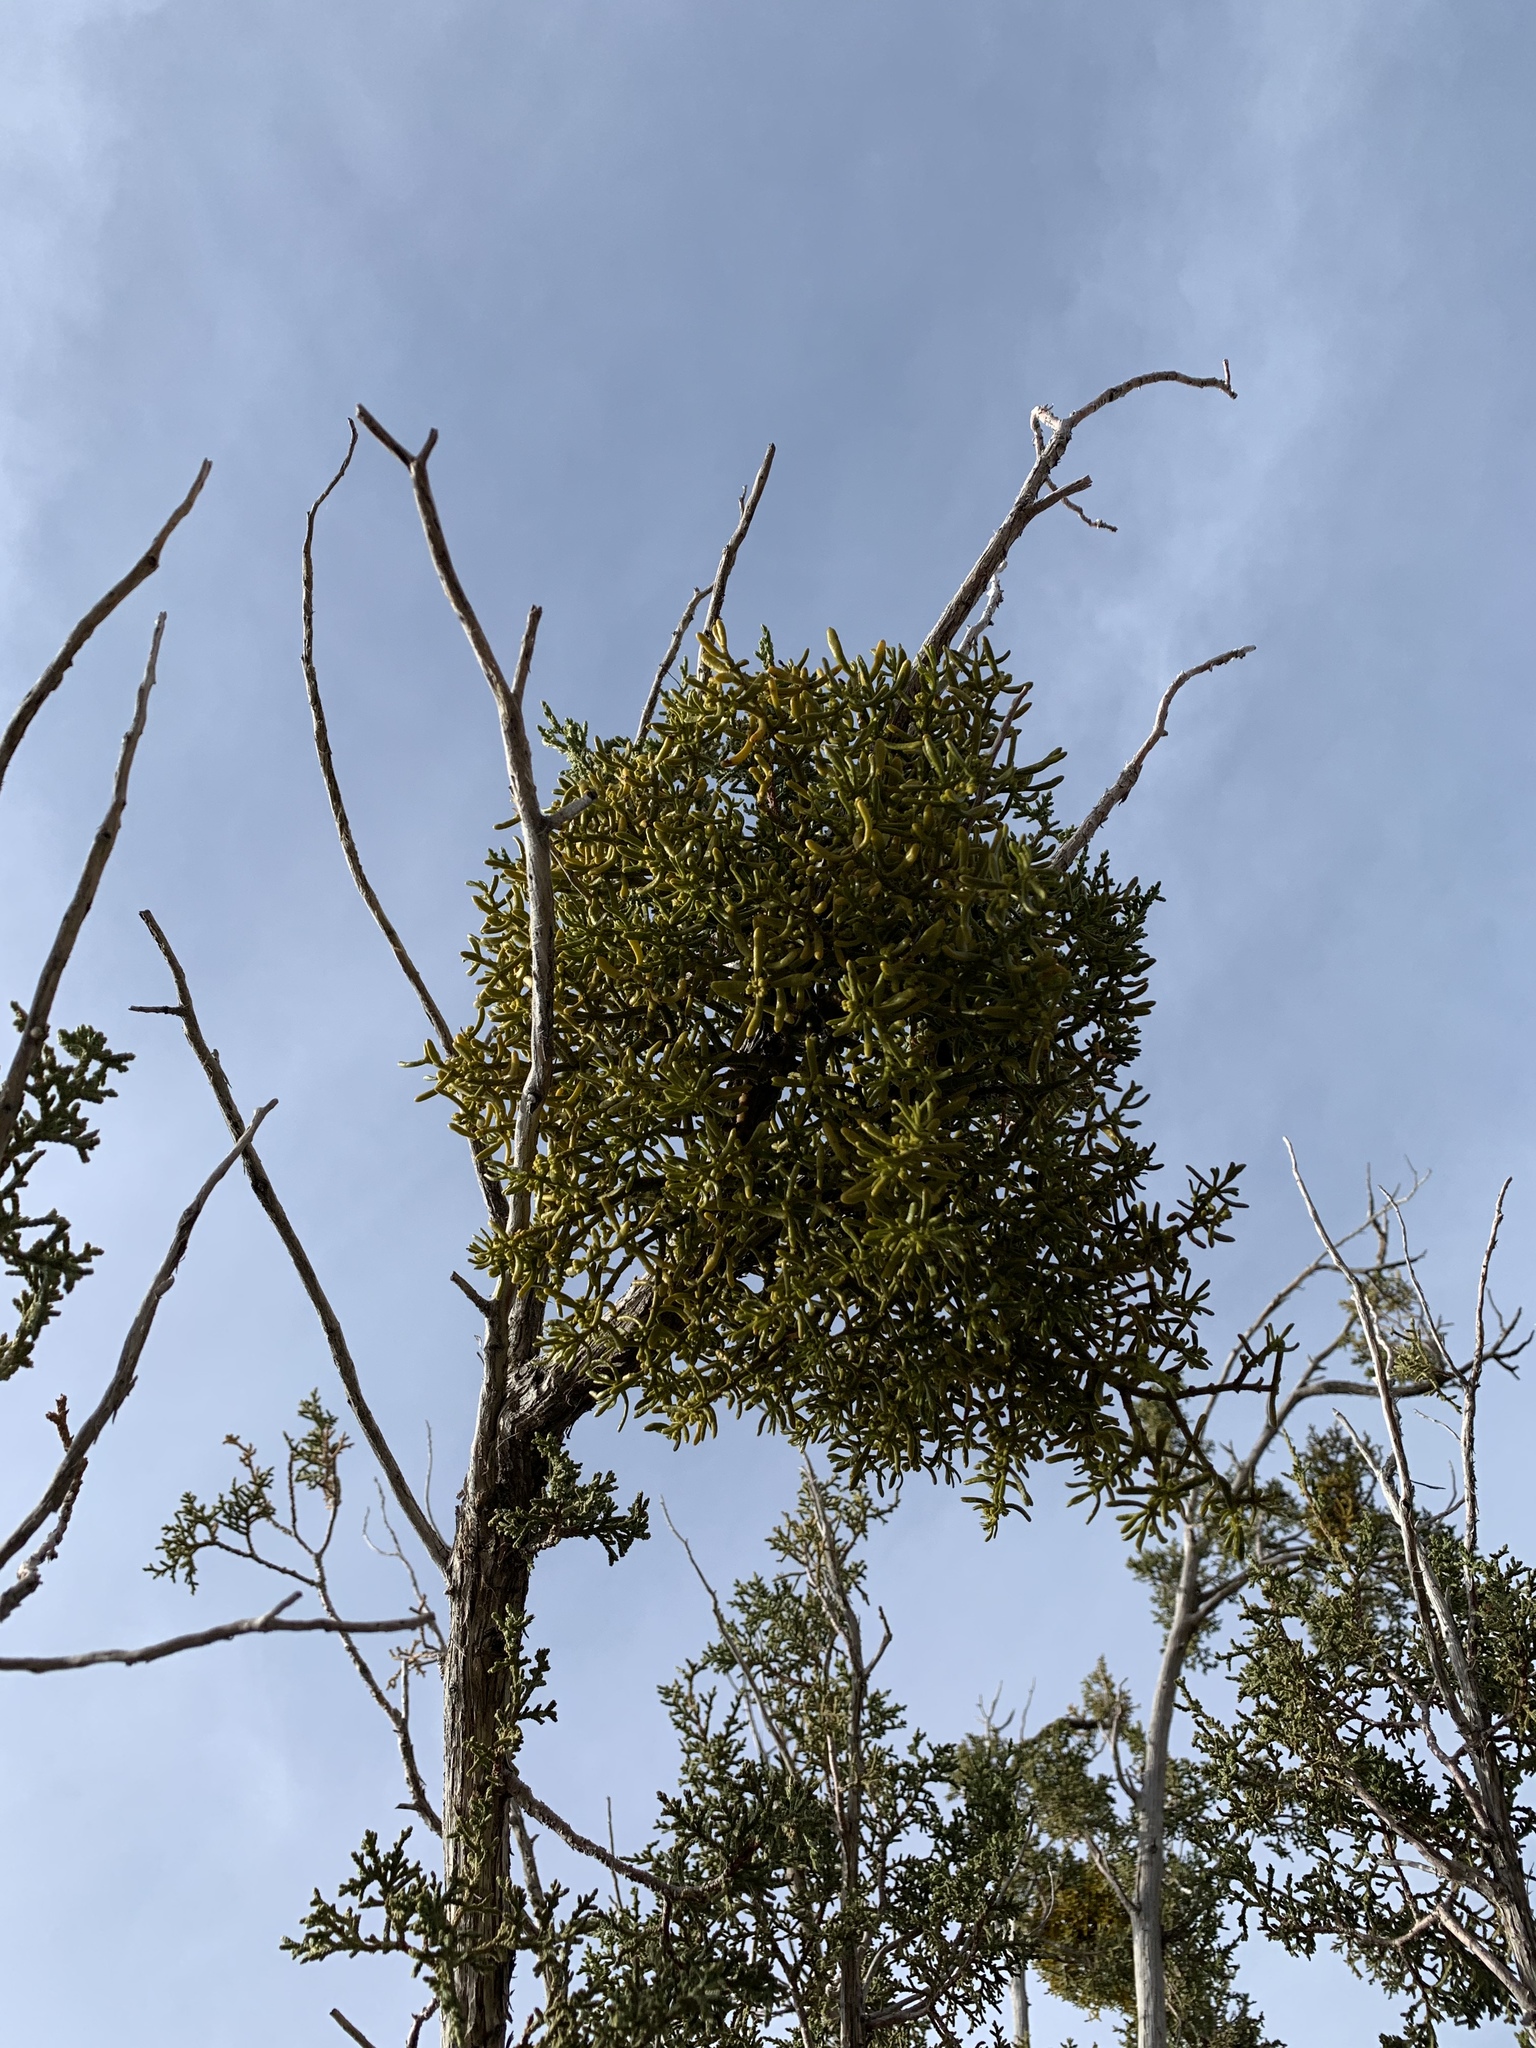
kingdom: Plantae
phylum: Tracheophyta
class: Magnoliopsida
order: Santalales
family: Viscaceae
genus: Phoradendron
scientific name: Phoradendron hawksworthii
